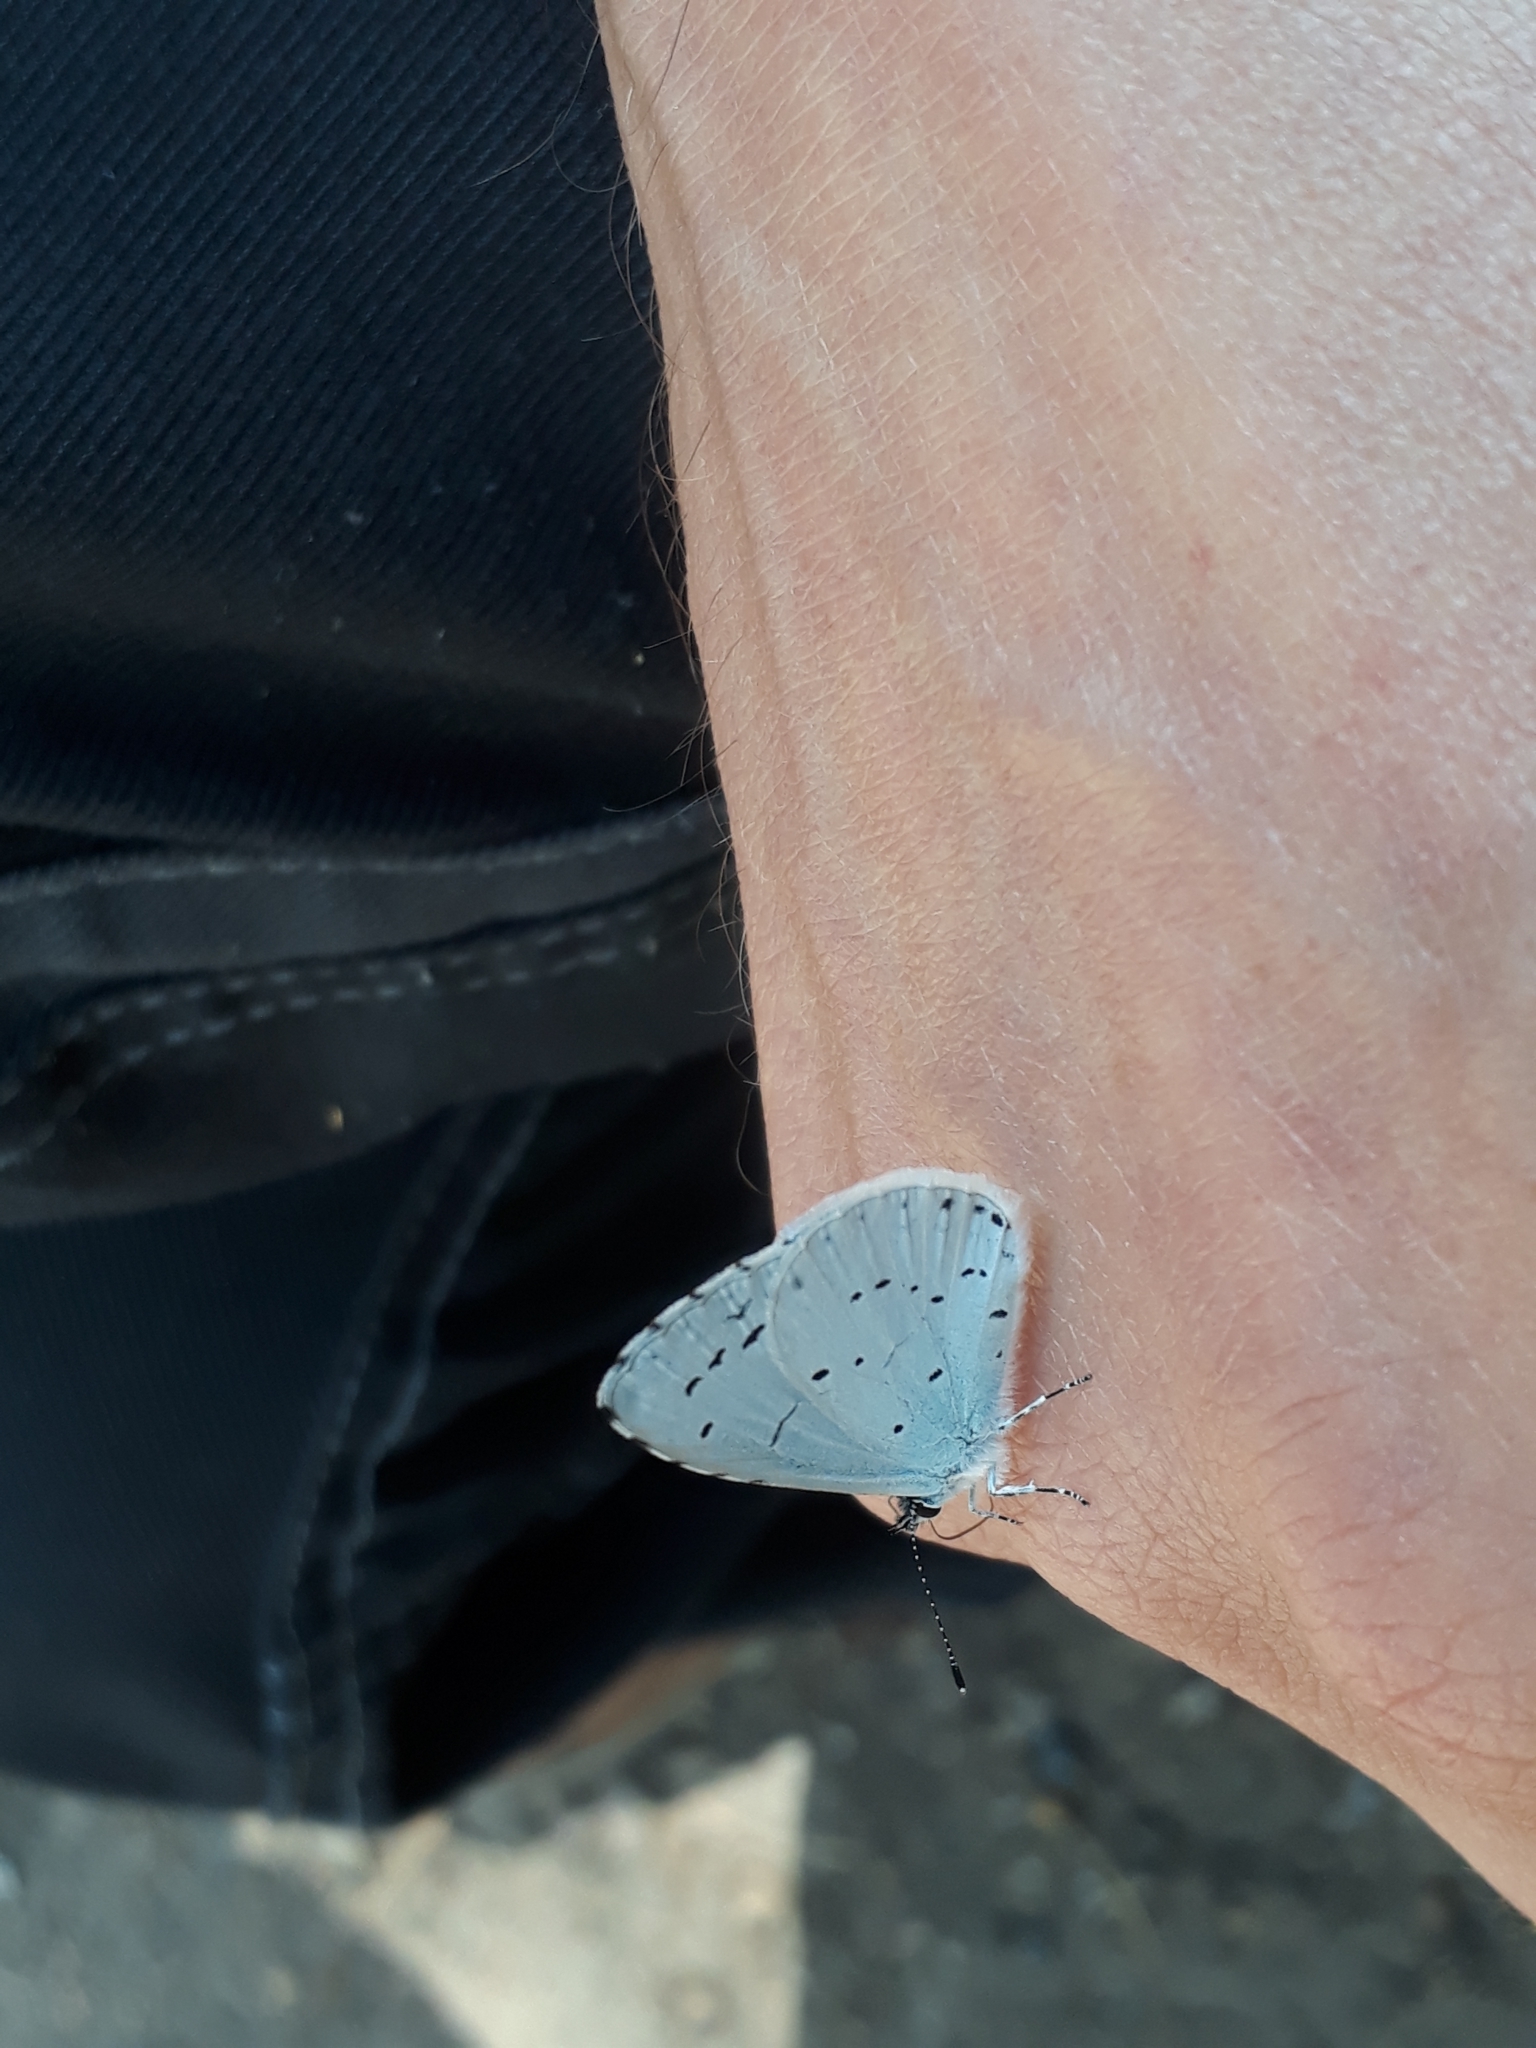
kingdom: Animalia
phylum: Arthropoda
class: Insecta
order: Lepidoptera
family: Lycaenidae
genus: Celastrina
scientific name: Celastrina argiolus
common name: Holly blue
